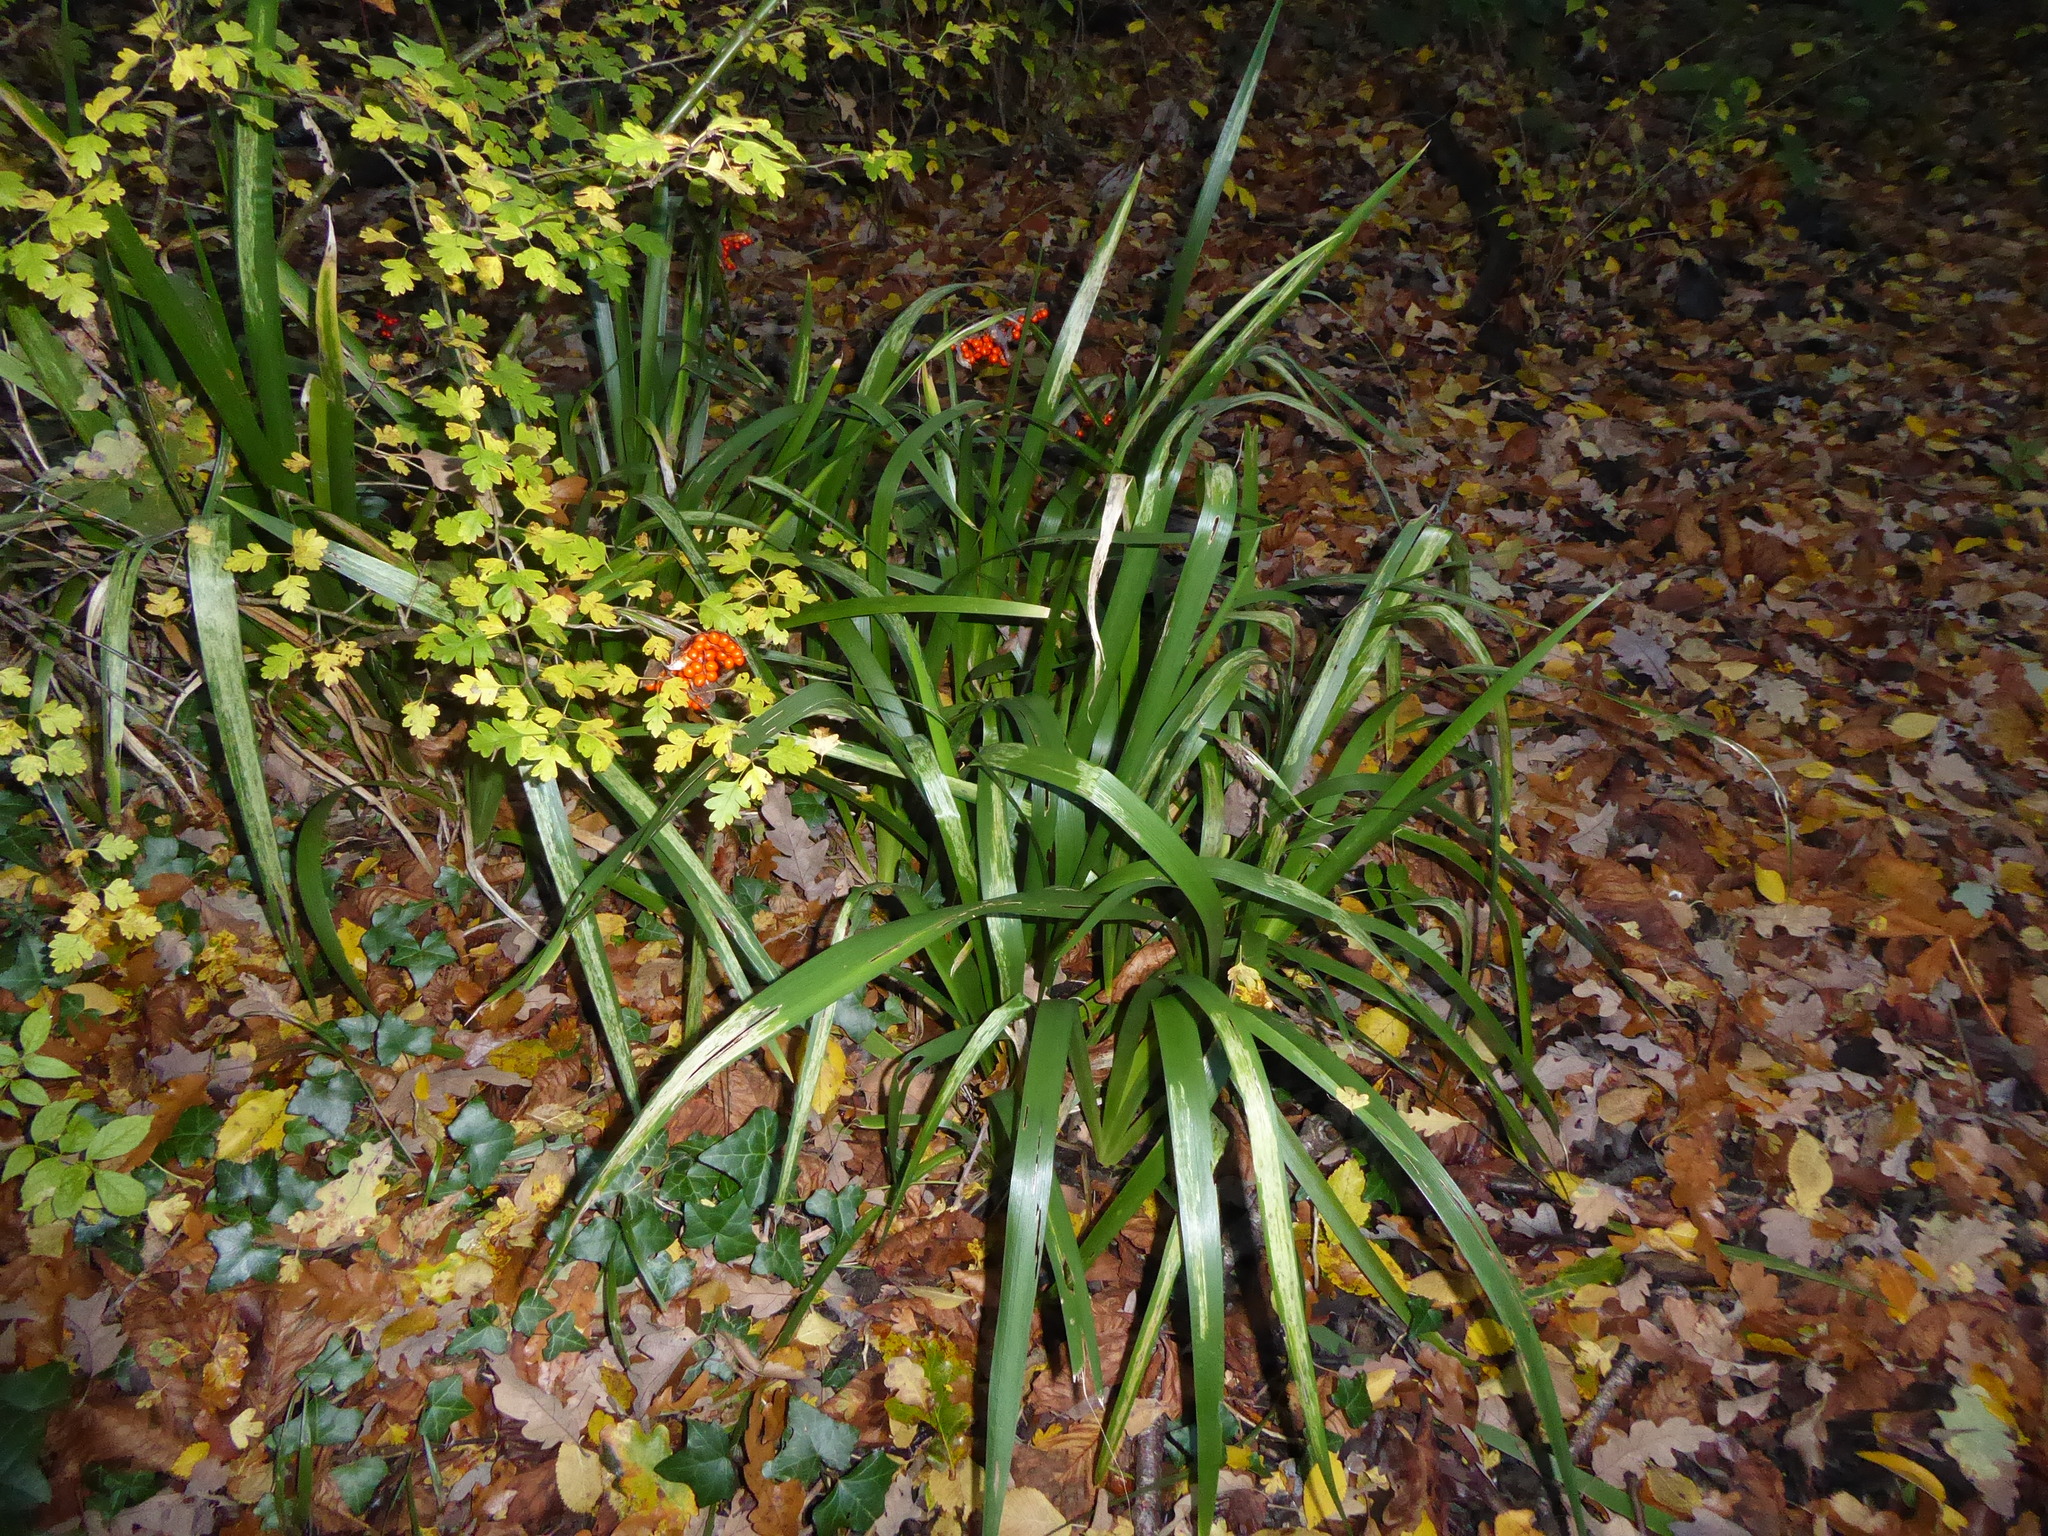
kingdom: Plantae
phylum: Tracheophyta
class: Liliopsida
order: Asparagales
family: Iridaceae
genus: Iris
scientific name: Iris foetidissima
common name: Stinking iris
